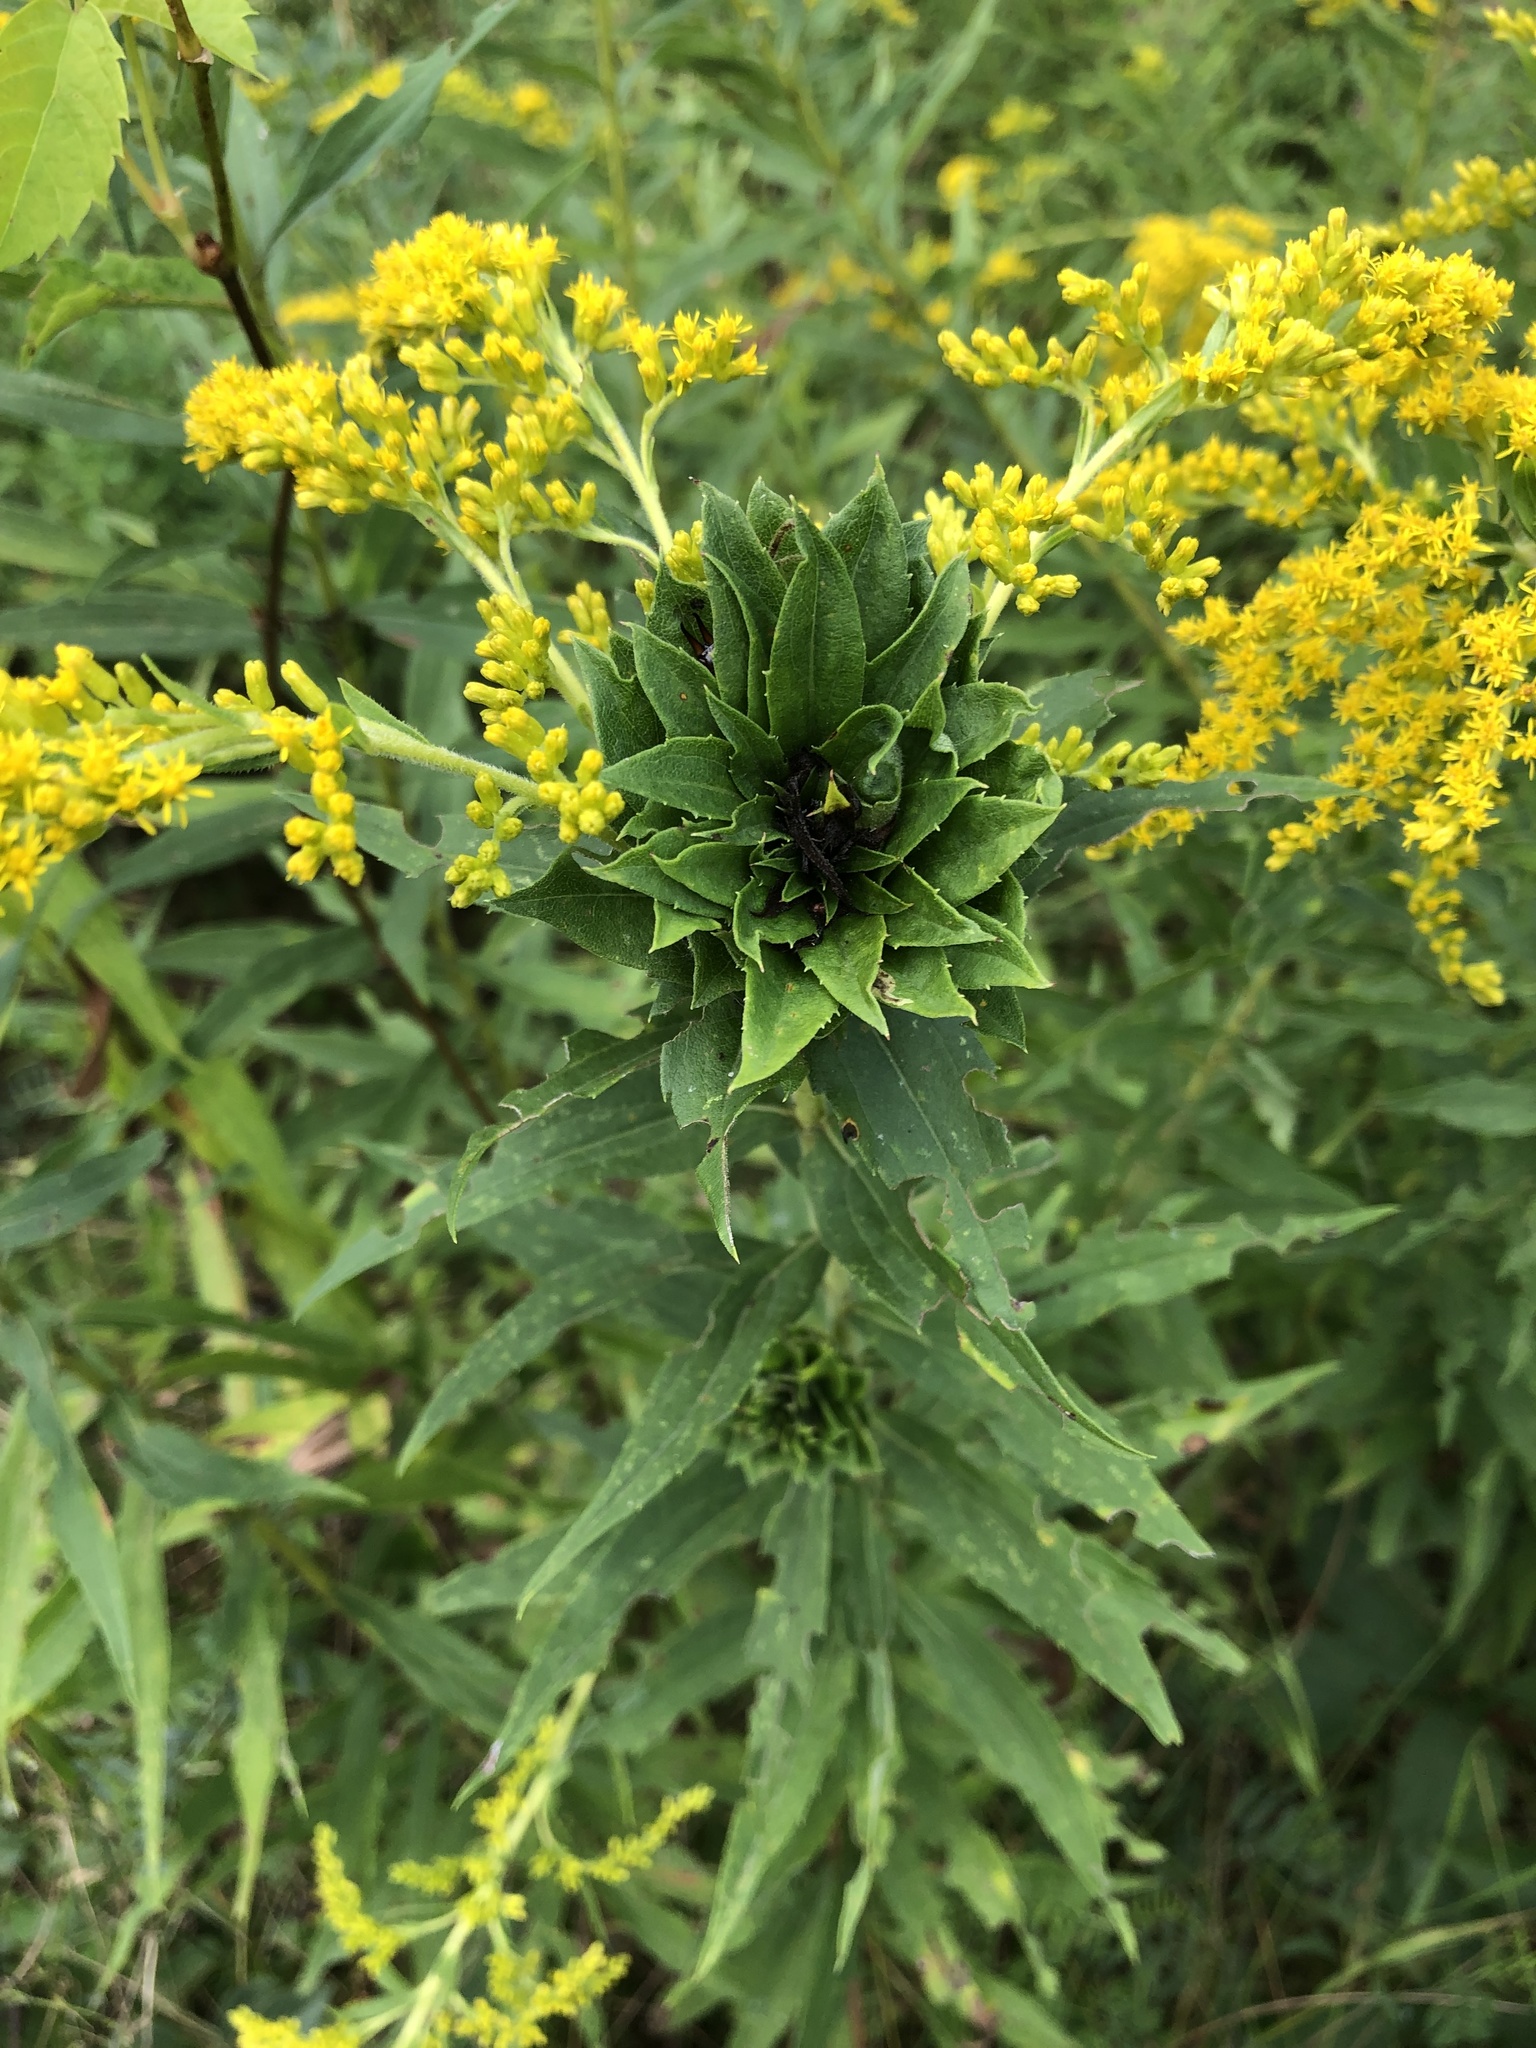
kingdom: Animalia
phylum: Arthropoda
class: Insecta
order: Diptera
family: Cecidomyiidae
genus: Rhopalomyia
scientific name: Rhopalomyia solidaginis
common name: Goldenrod bunch gall midge
